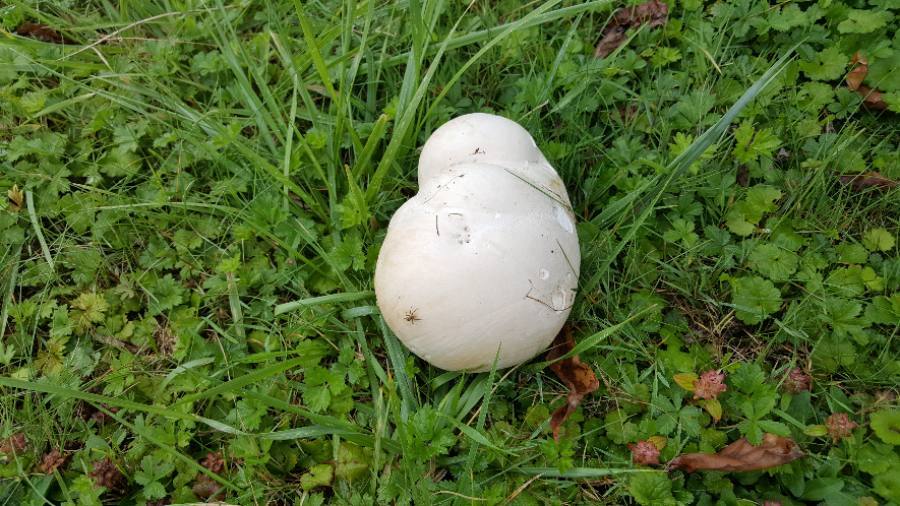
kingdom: Fungi
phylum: Basidiomycota
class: Agaricomycetes
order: Agaricales
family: Lycoperdaceae
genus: Calvatia
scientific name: Calvatia gigantea
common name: Giant puffball
